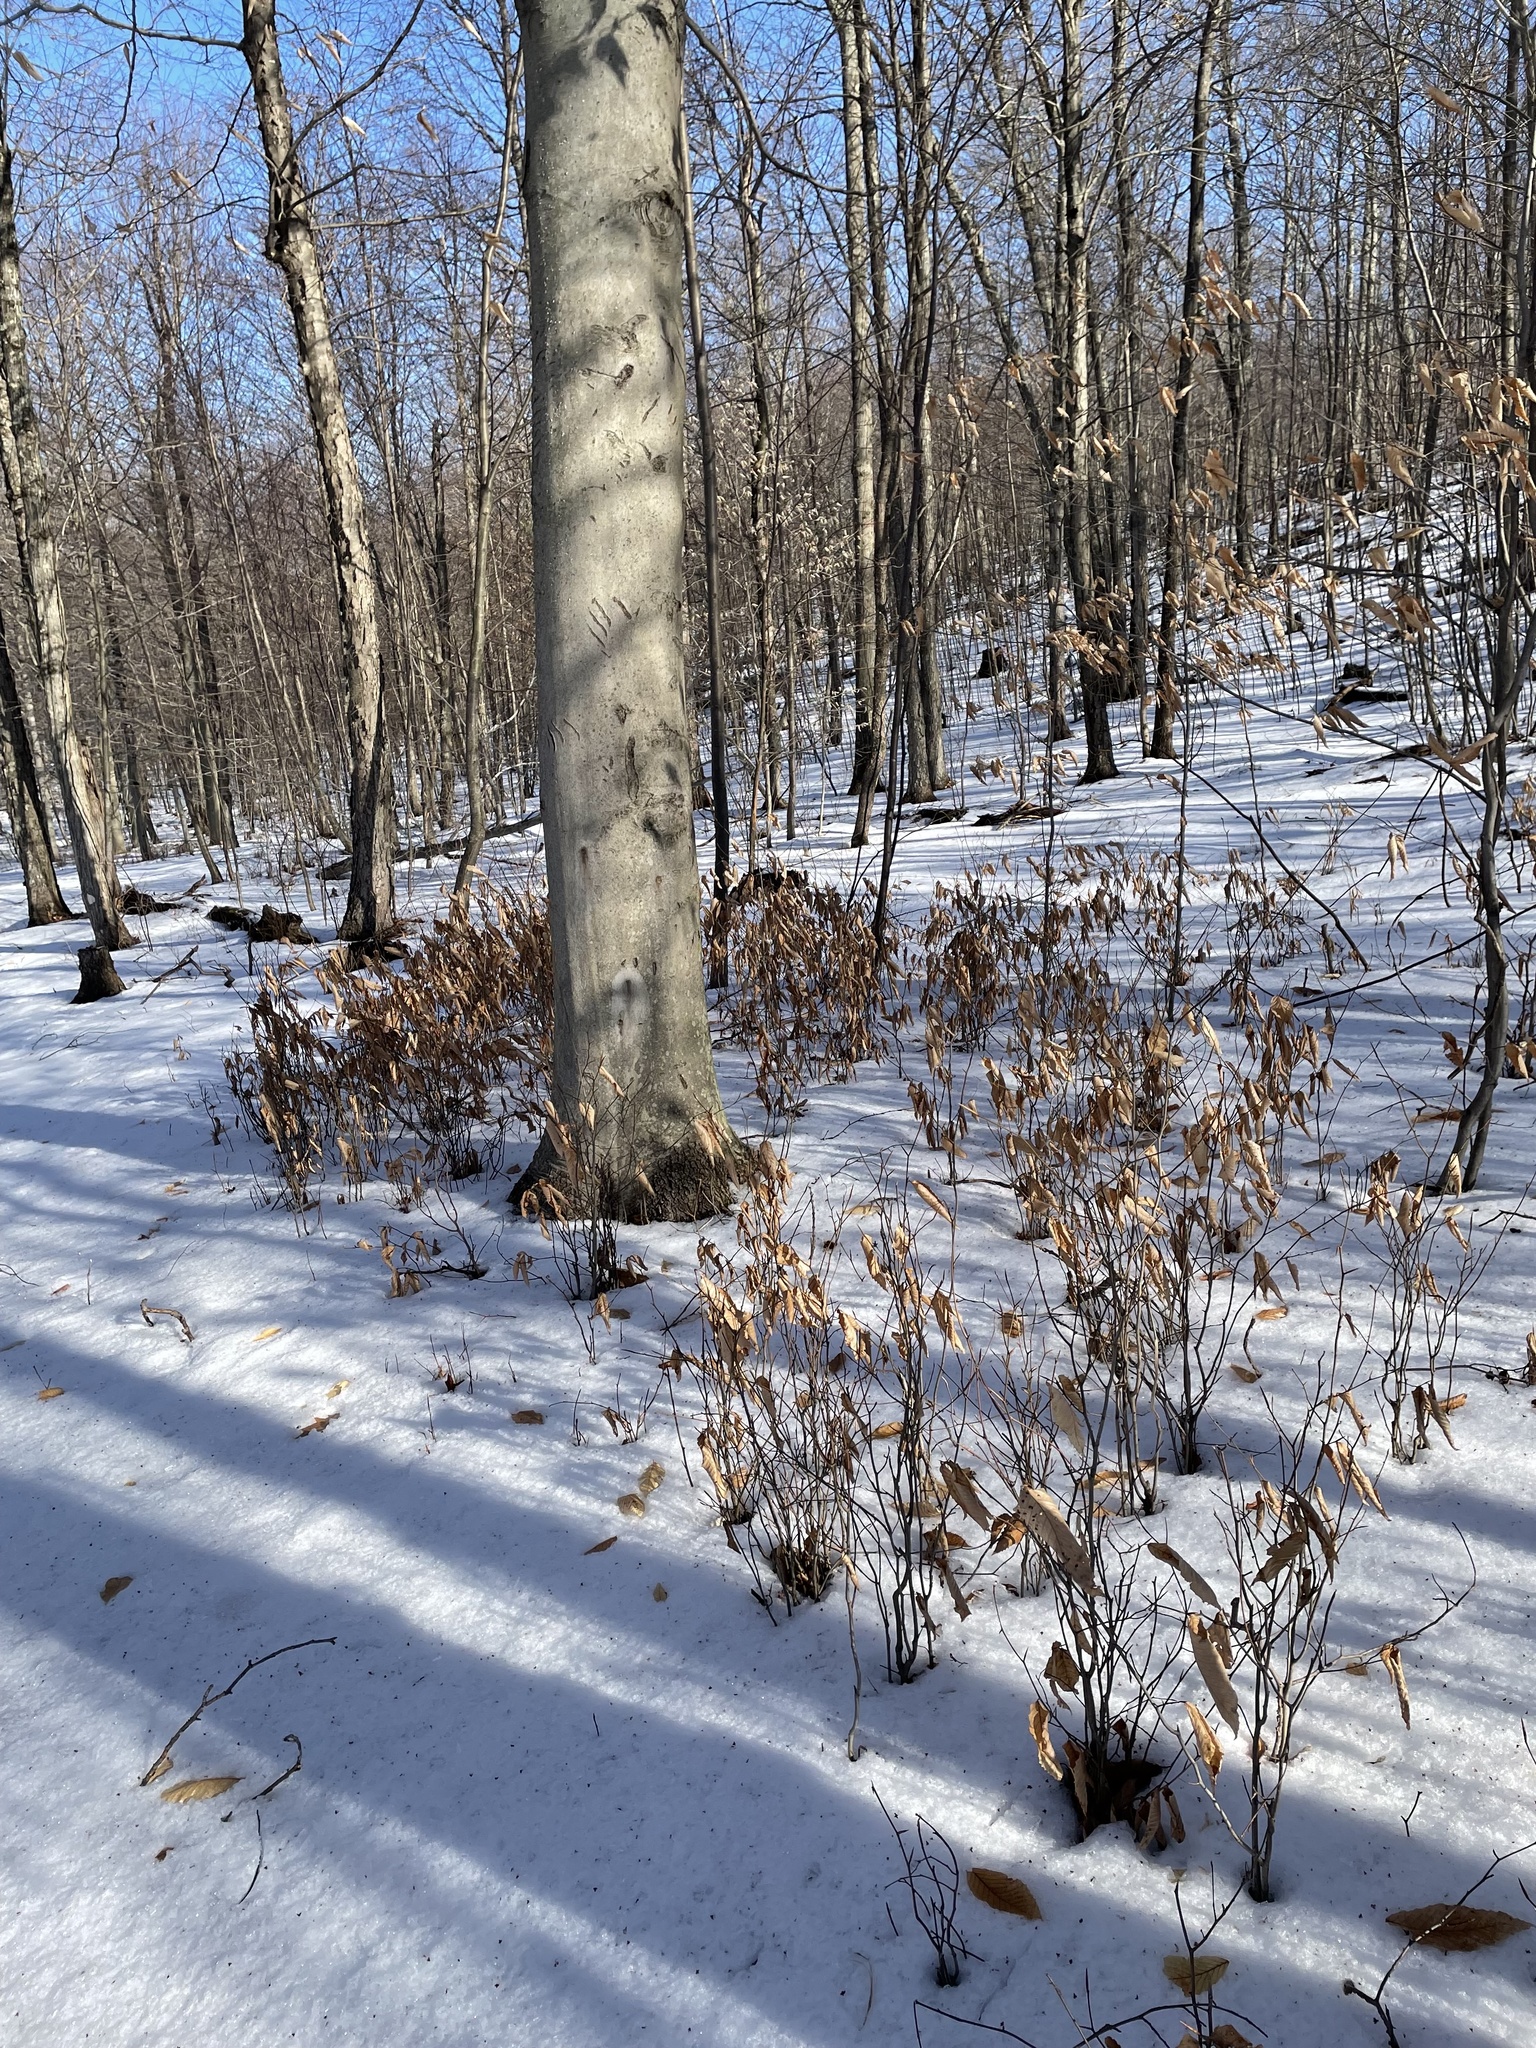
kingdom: Plantae
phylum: Tracheophyta
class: Magnoliopsida
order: Fagales
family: Fagaceae
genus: Fagus
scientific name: Fagus grandifolia
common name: American beech
